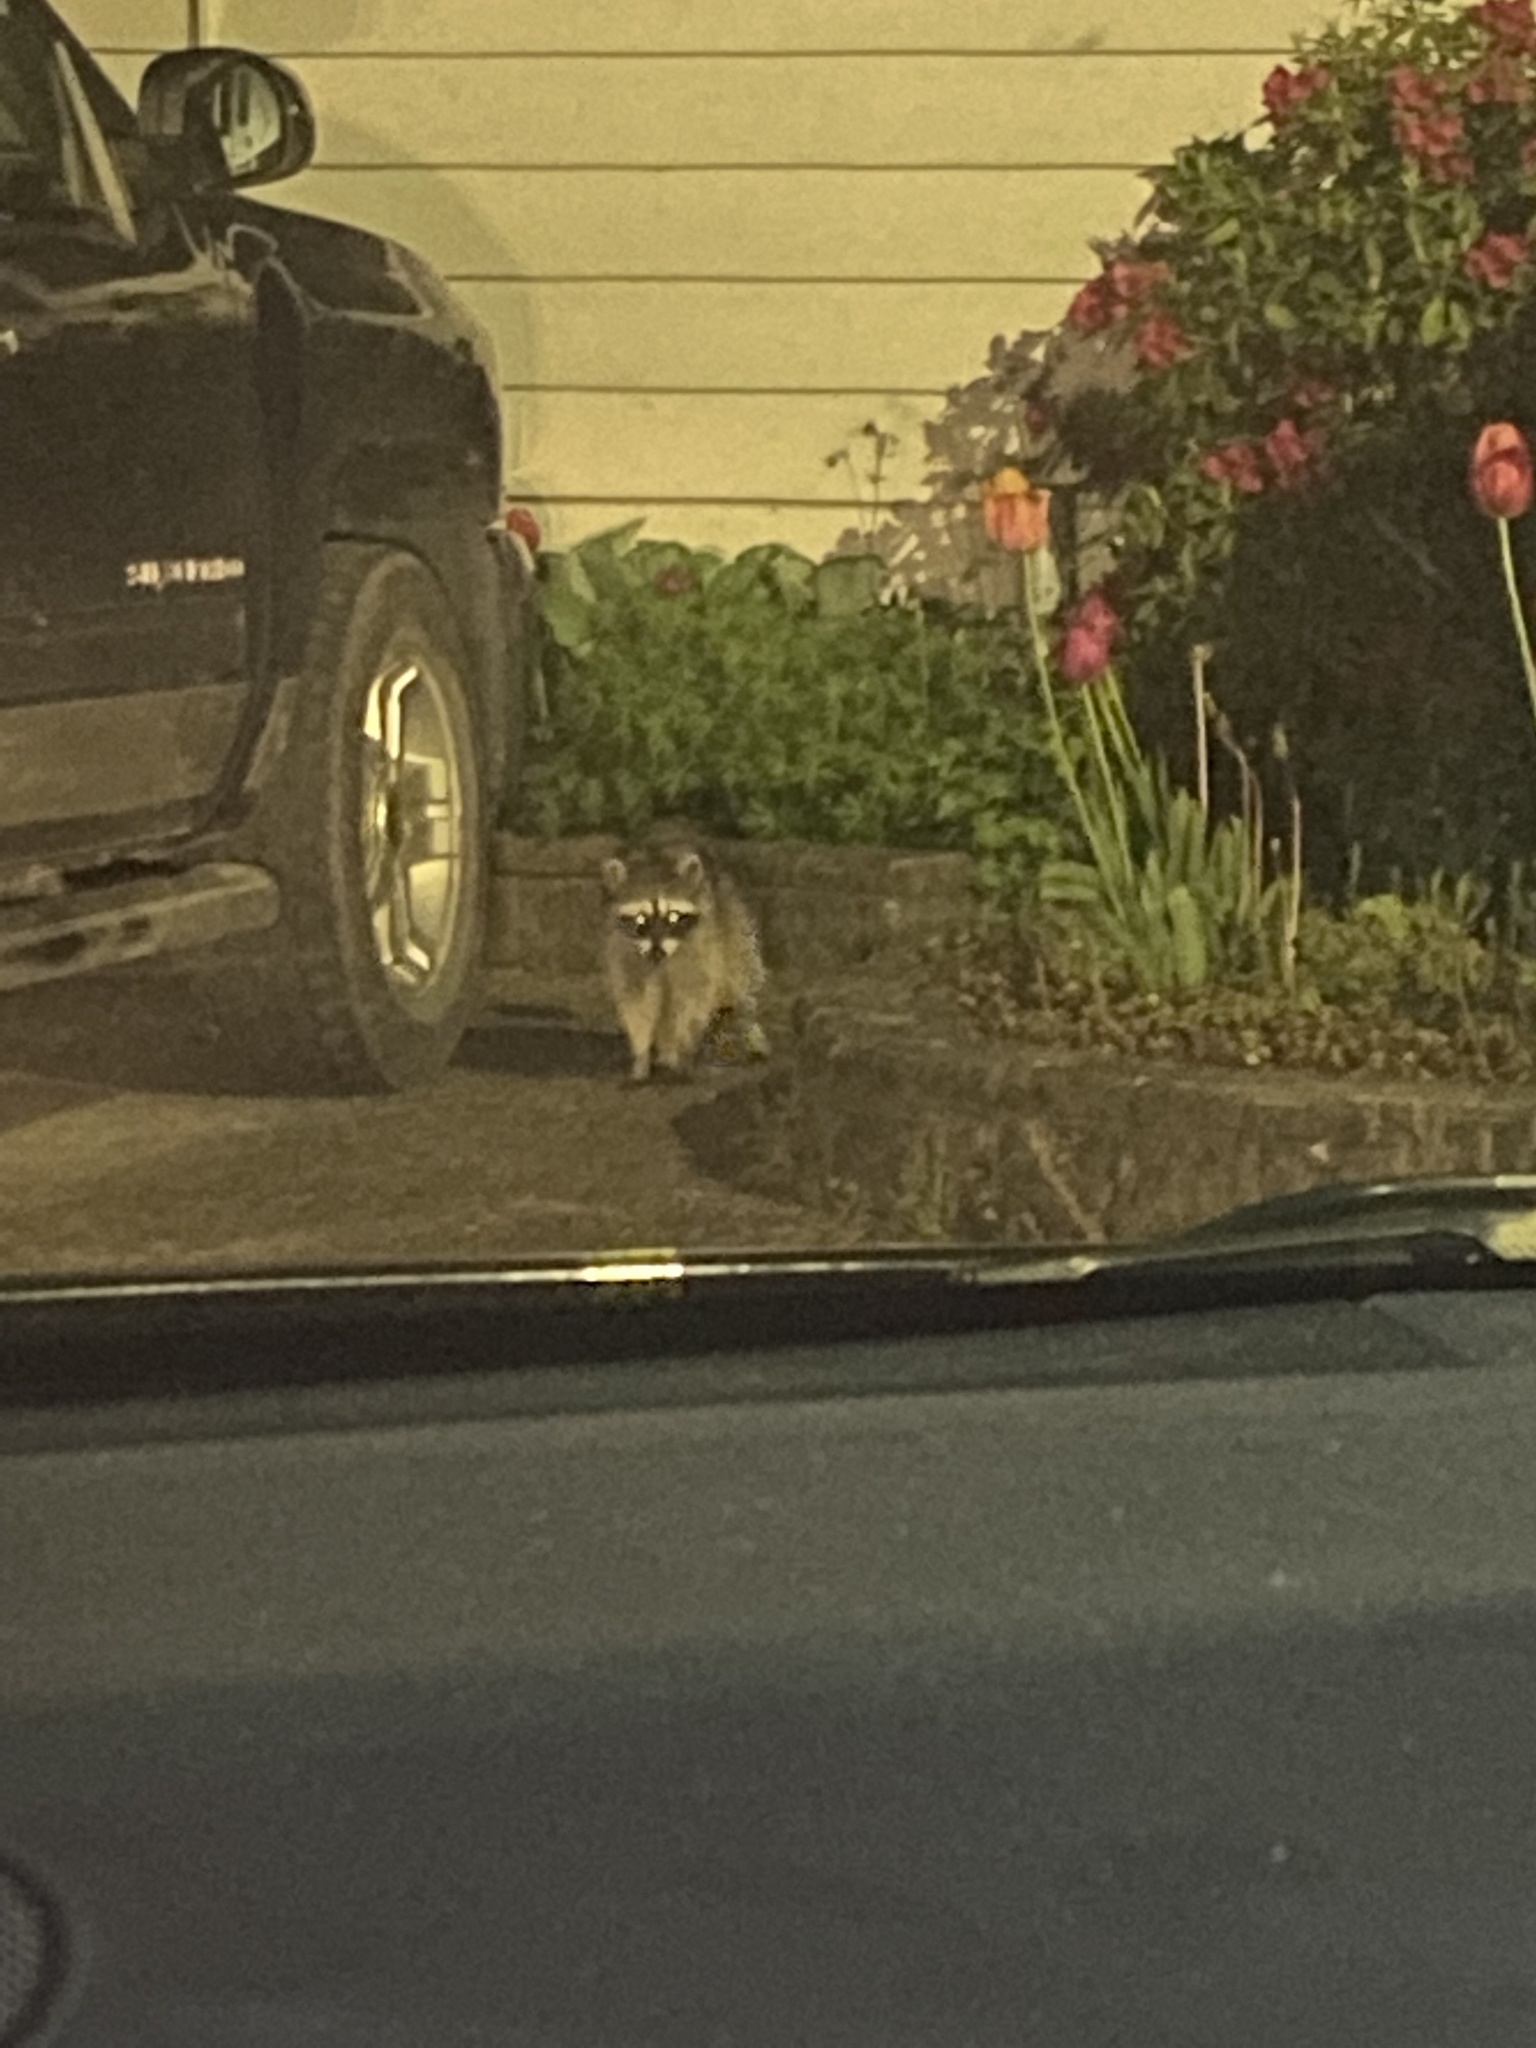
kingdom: Animalia
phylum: Chordata
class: Mammalia
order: Carnivora
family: Procyonidae
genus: Procyon
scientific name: Procyon lotor
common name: Raccoon
